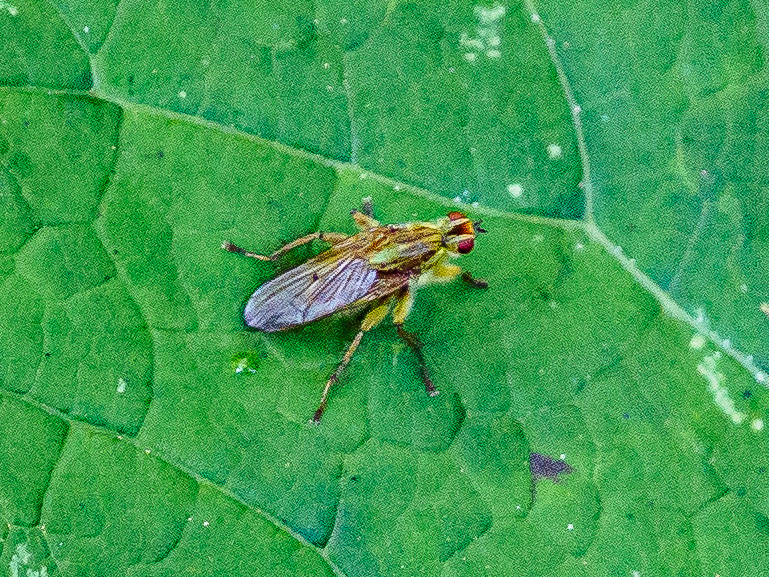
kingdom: Animalia
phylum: Arthropoda
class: Insecta
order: Diptera
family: Scathophagidae
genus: Scathophaga
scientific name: Scathophaga stercoraria
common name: Yellow dung fly
